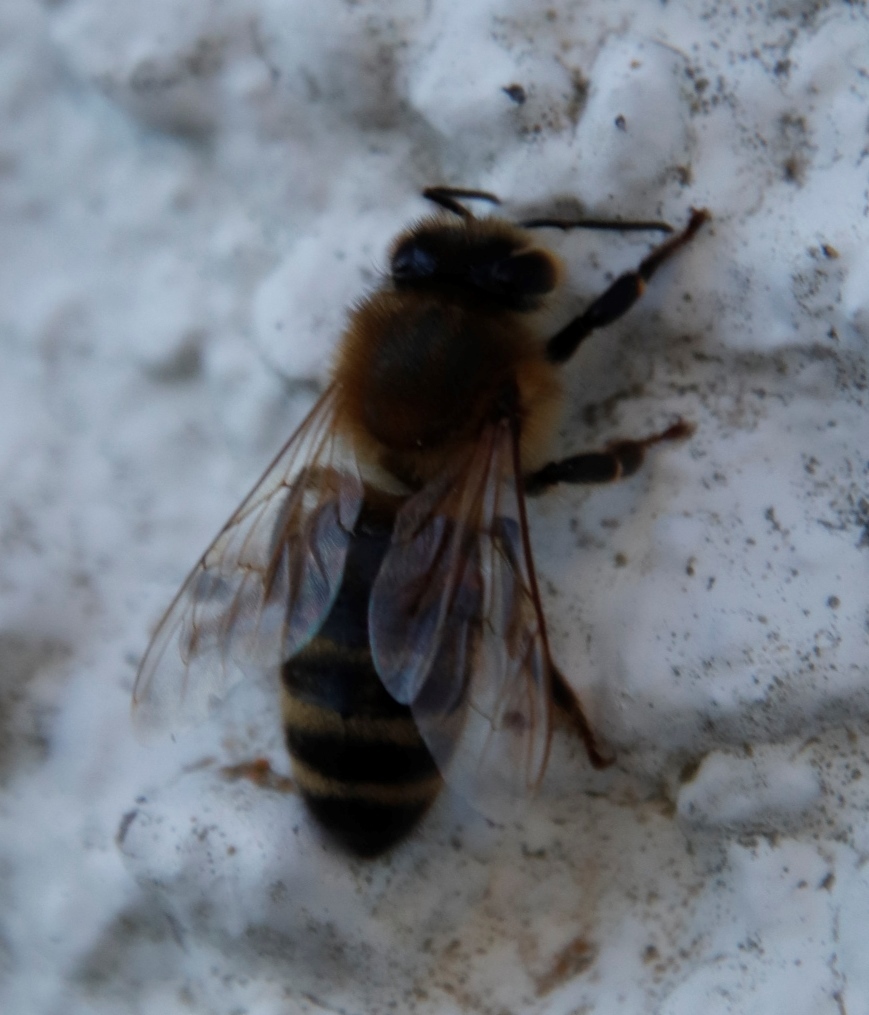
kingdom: Animalia
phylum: Arthropoda
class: Insecta
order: Hymenoptera
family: Apidae
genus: Apis
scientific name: Apis mellifera
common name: Honey bee
